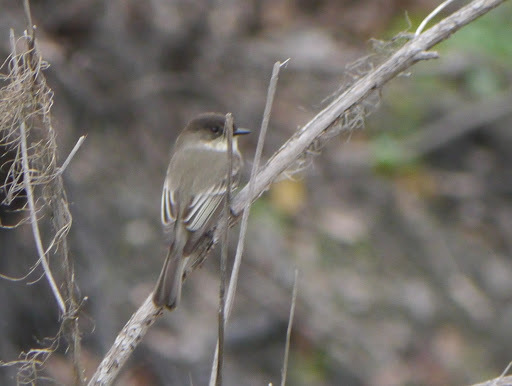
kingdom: Animalia
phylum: Chordata
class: Aves
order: Passeriformes
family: Tyrannidae
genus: Sayornis
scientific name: Sayornis phoebe
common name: Eastern phoebe
